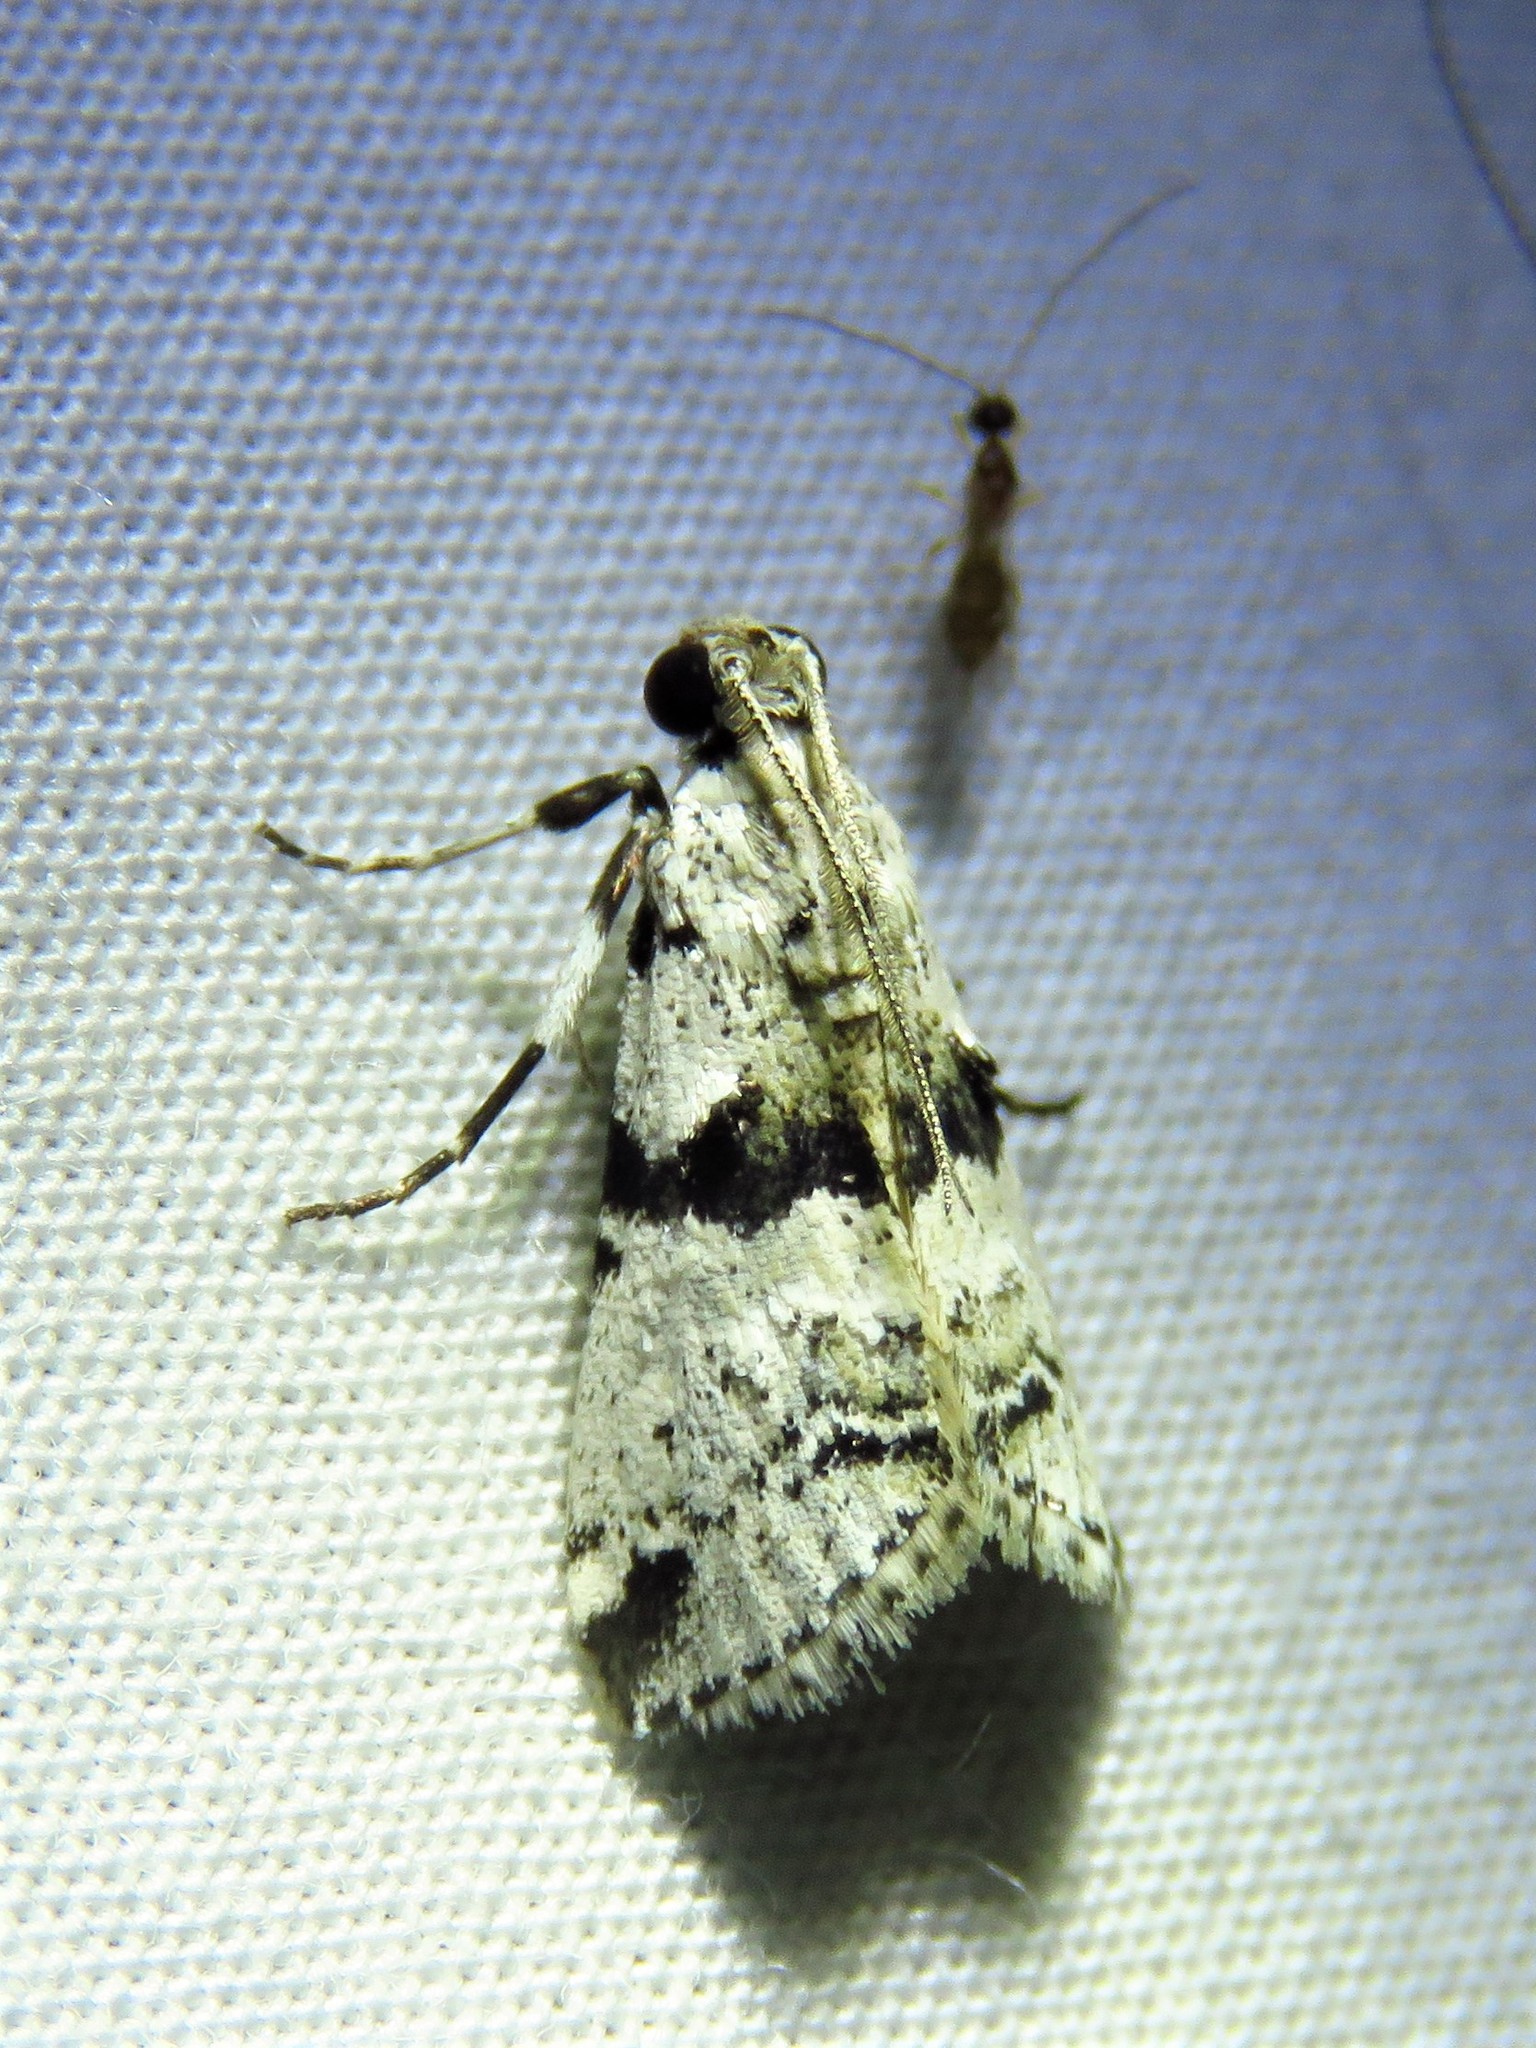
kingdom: Animalia
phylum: Arthropoda
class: Insecta
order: Lepidoptera
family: Pyralidae
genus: Tallula
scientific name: Tallula atrifascialis
